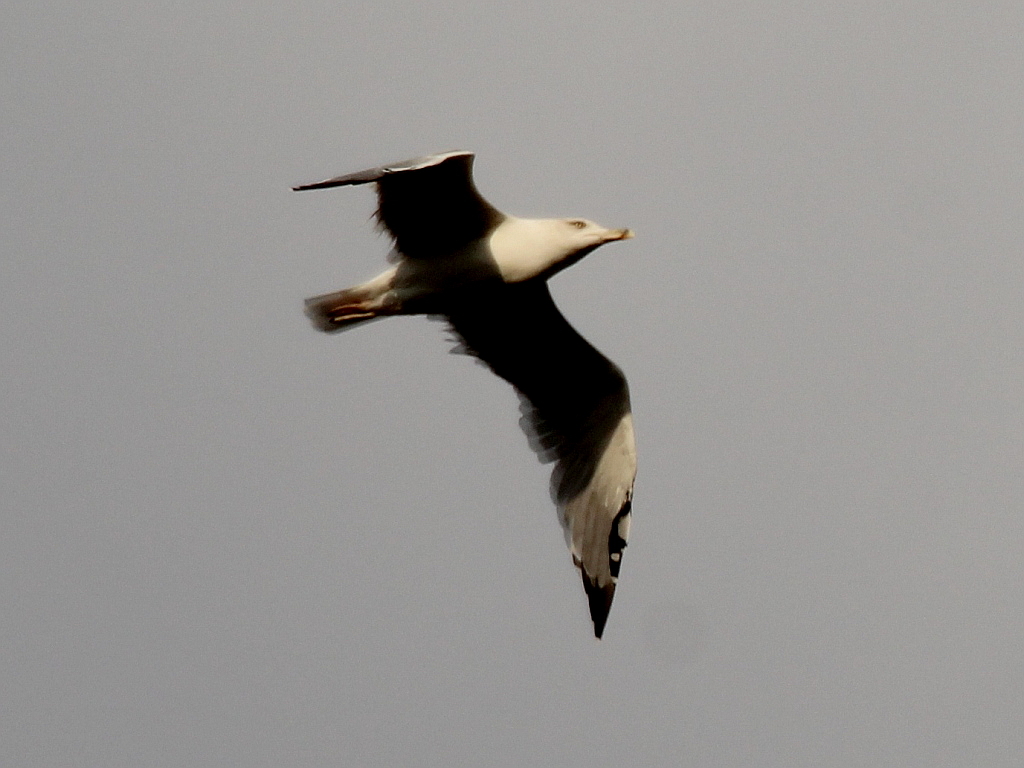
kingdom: Animalia
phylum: Chordata
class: Aves
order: Charadriiformes
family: Laridae
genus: Larus
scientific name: Larus michahellis
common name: Yellow-legged gull
